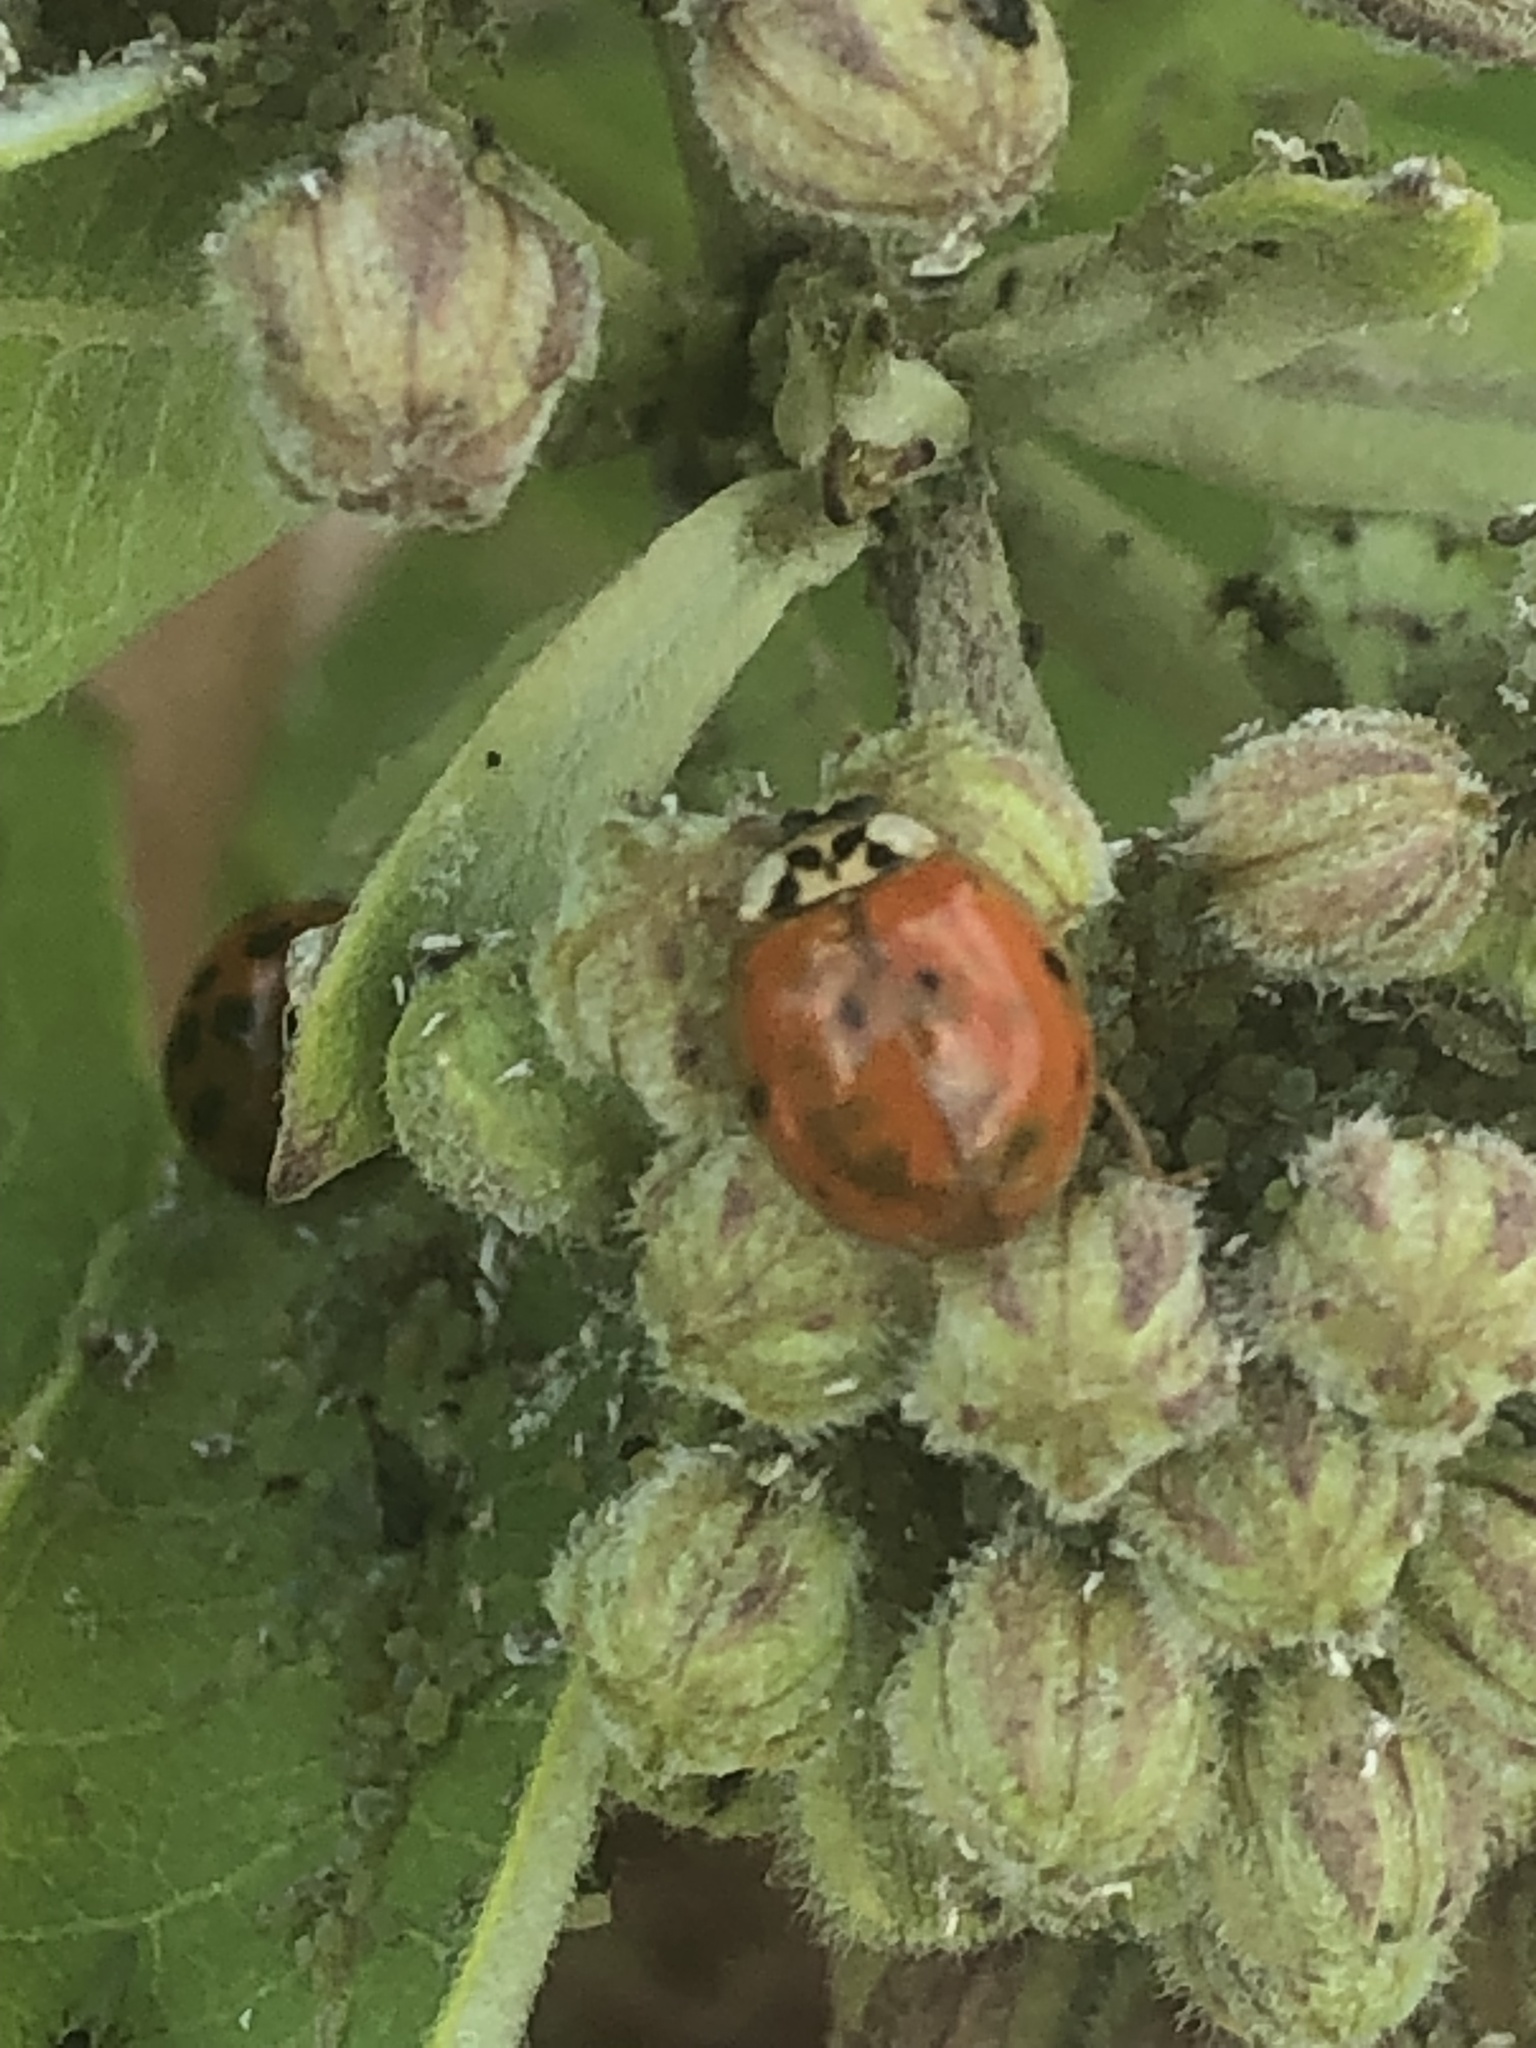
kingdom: Animalia
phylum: Arthropoda
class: Insecta
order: Coleoptera
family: Coccinellidae
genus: Harmonia
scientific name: Harmonia axyridis
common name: Harlequin ladybird
